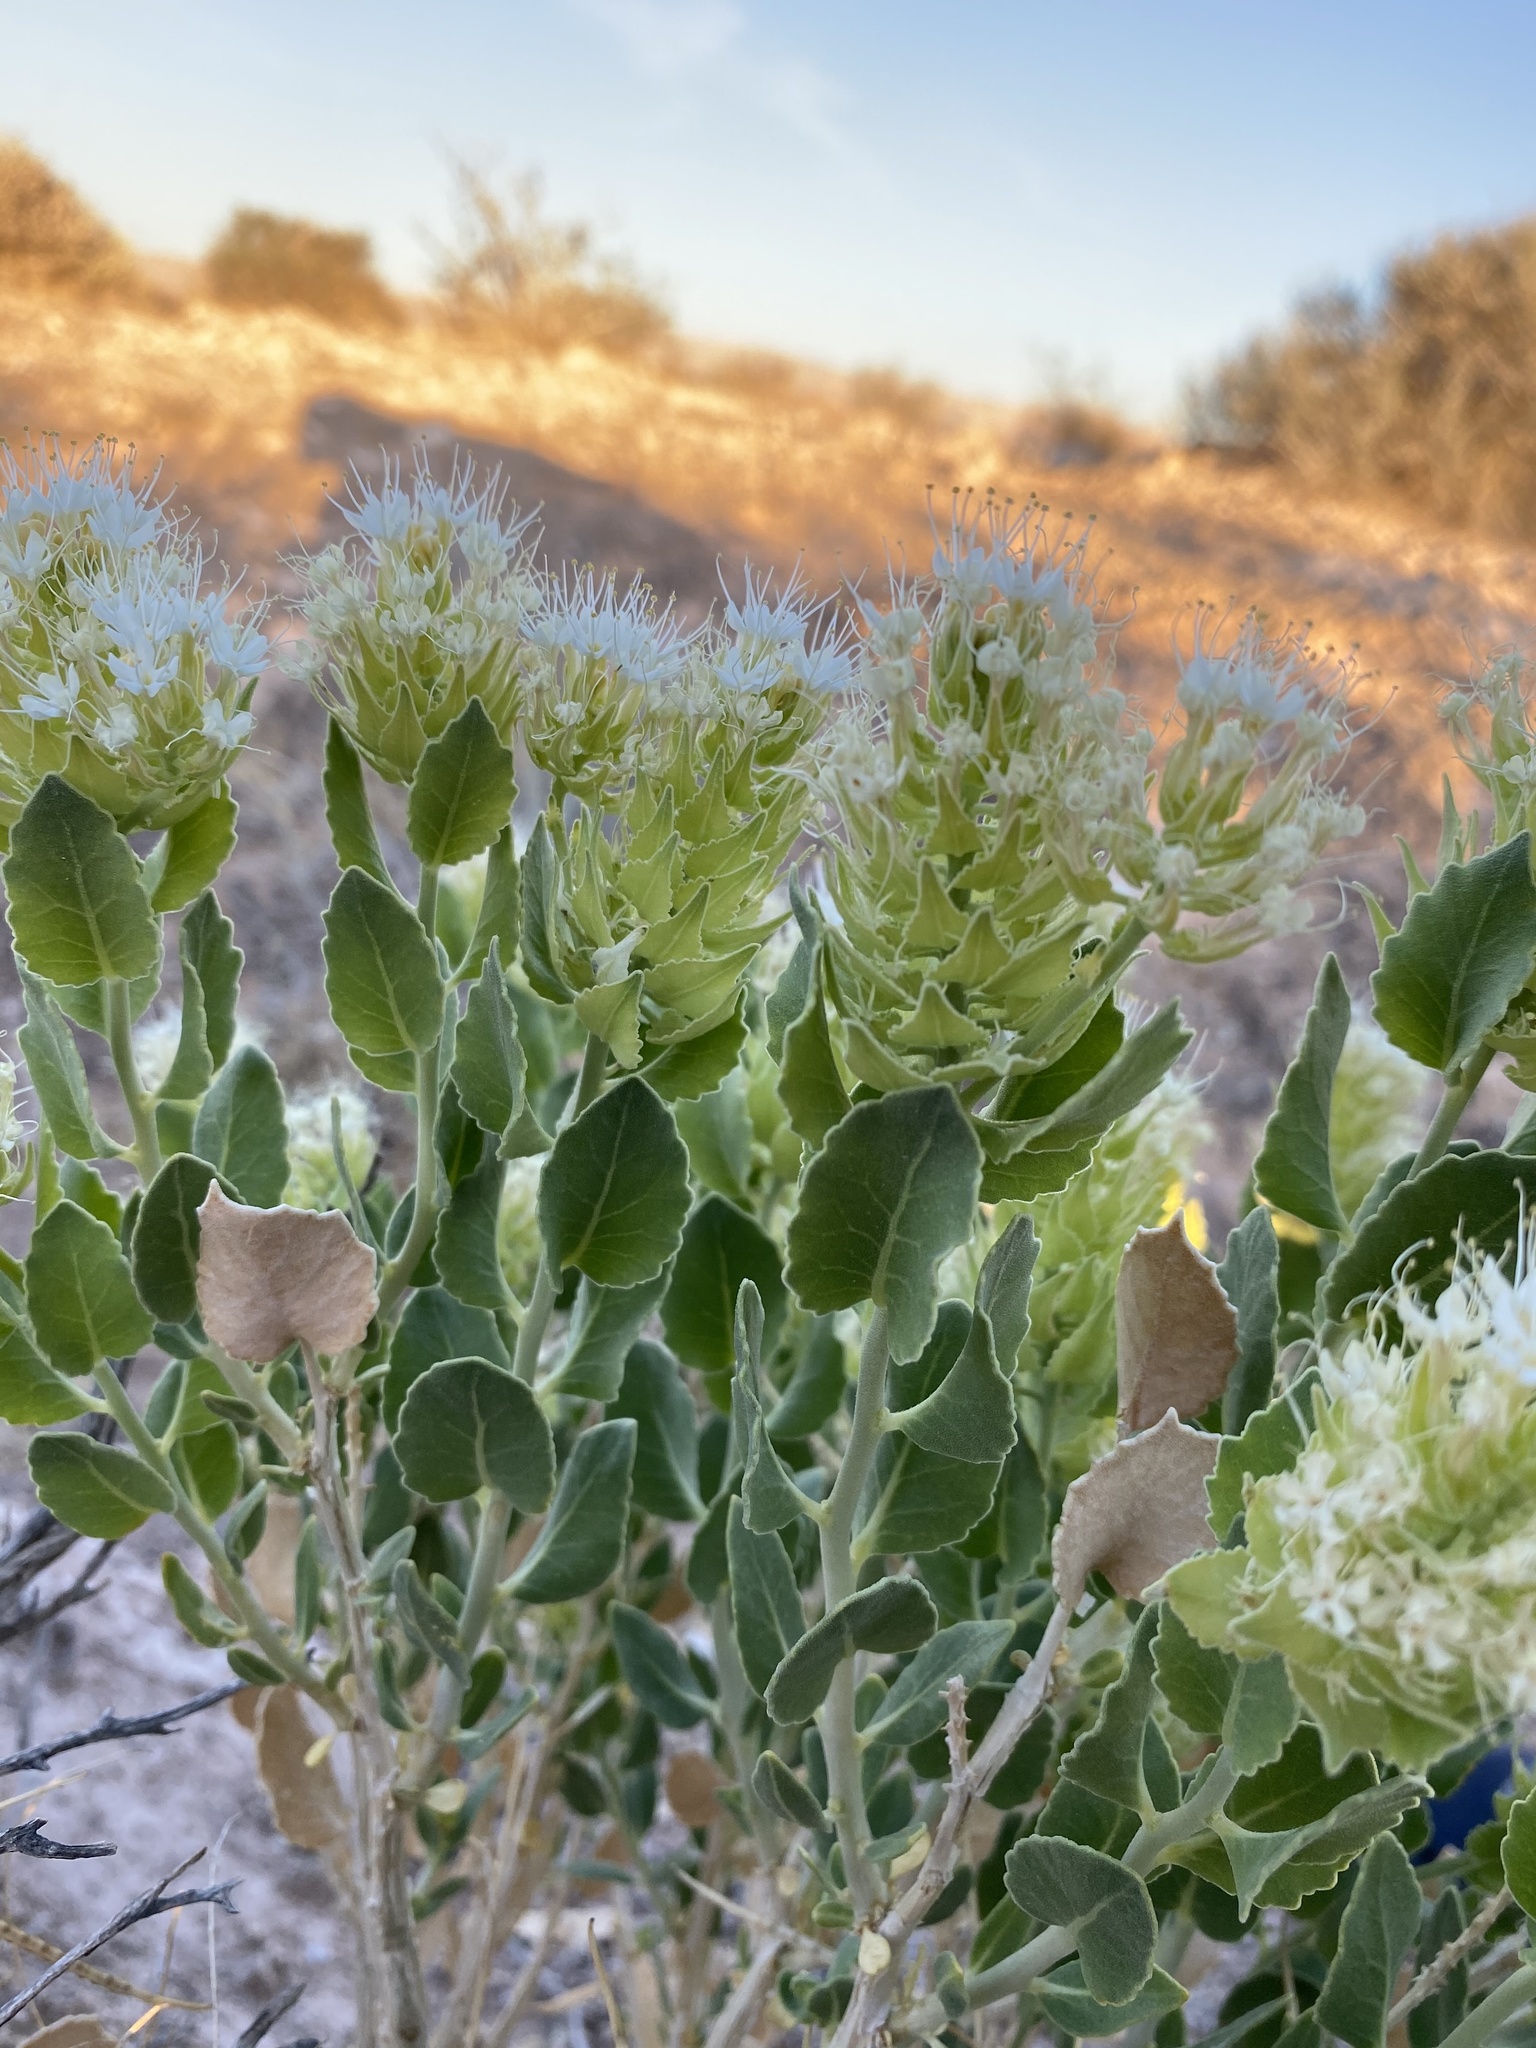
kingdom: Plantae
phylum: Tracheophyta
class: Magnoliopsida
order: Cornales
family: Loasaceae
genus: Petalonyx
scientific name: Petalonyx nitidus
